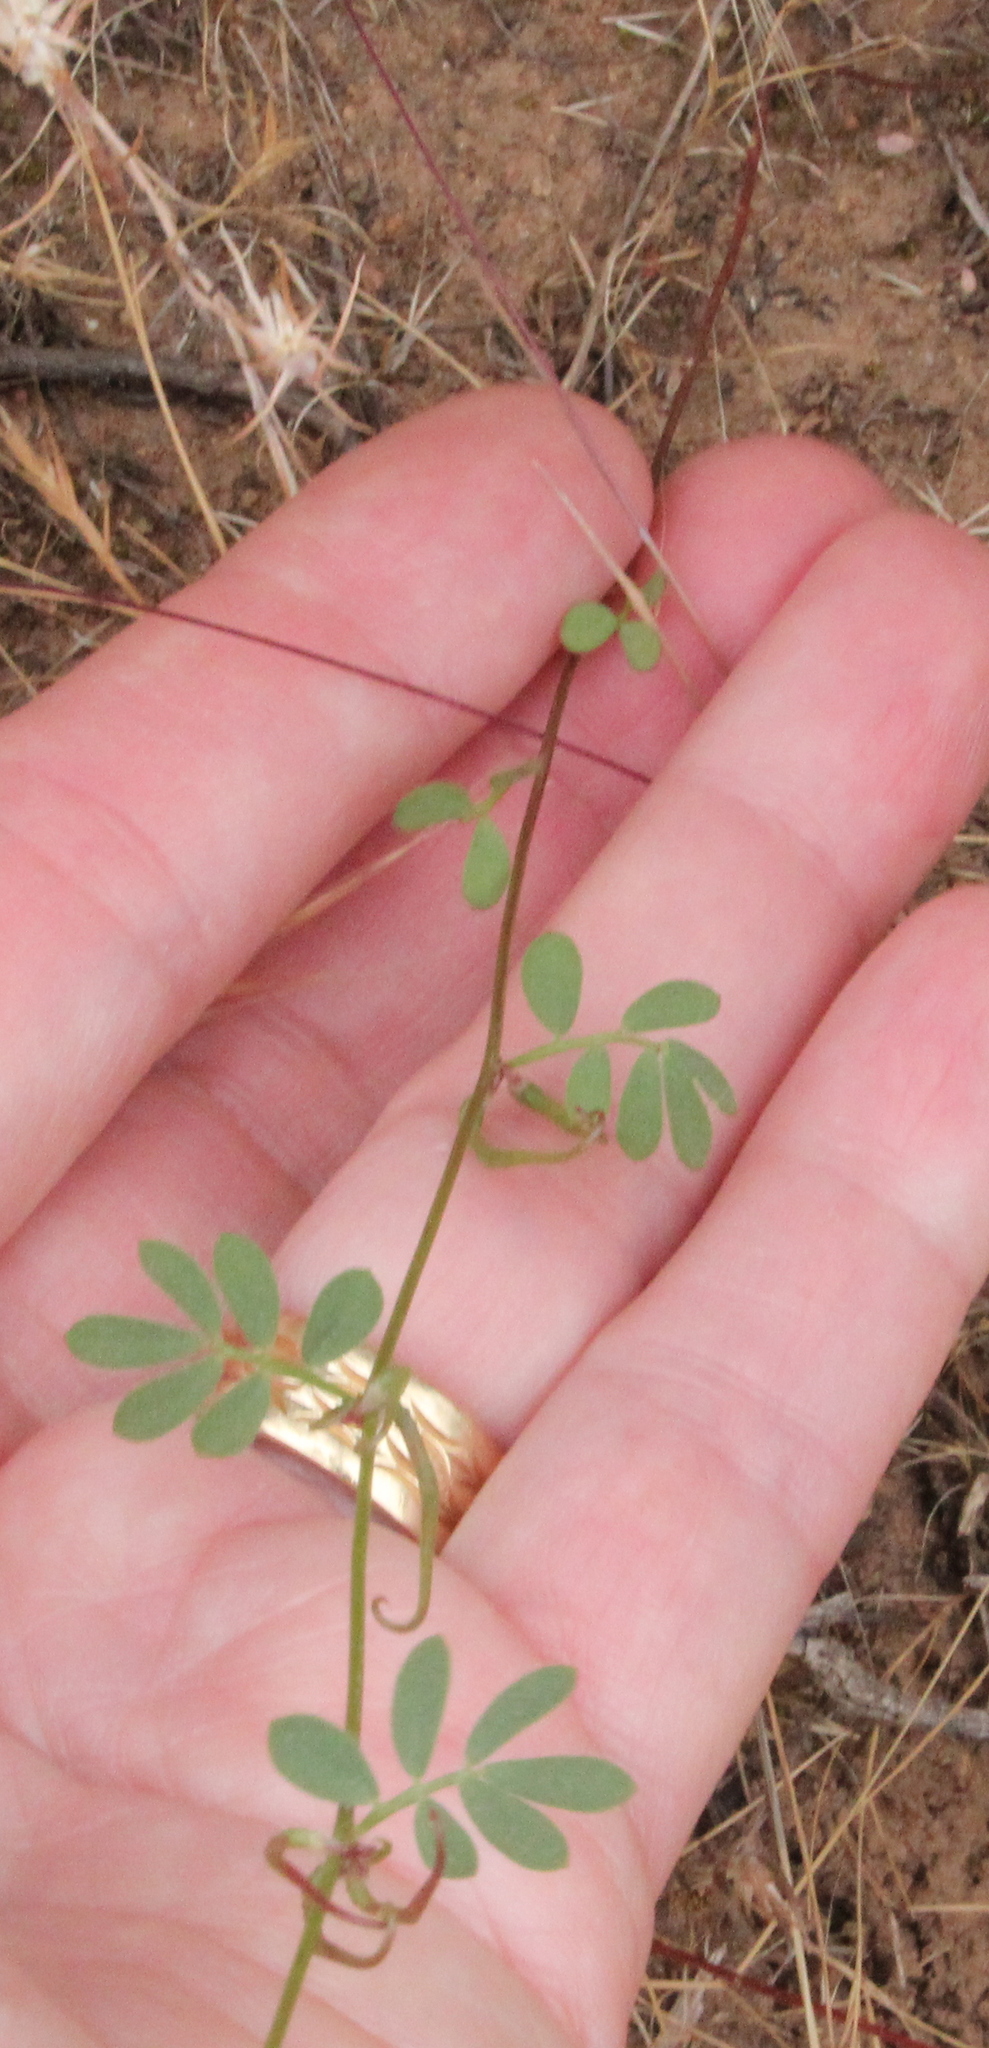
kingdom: Plantae
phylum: Tracheophyta
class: Magnoliopsida
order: Fabales
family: Fabaceae
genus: Acmispon
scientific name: Acmispon micranthus
